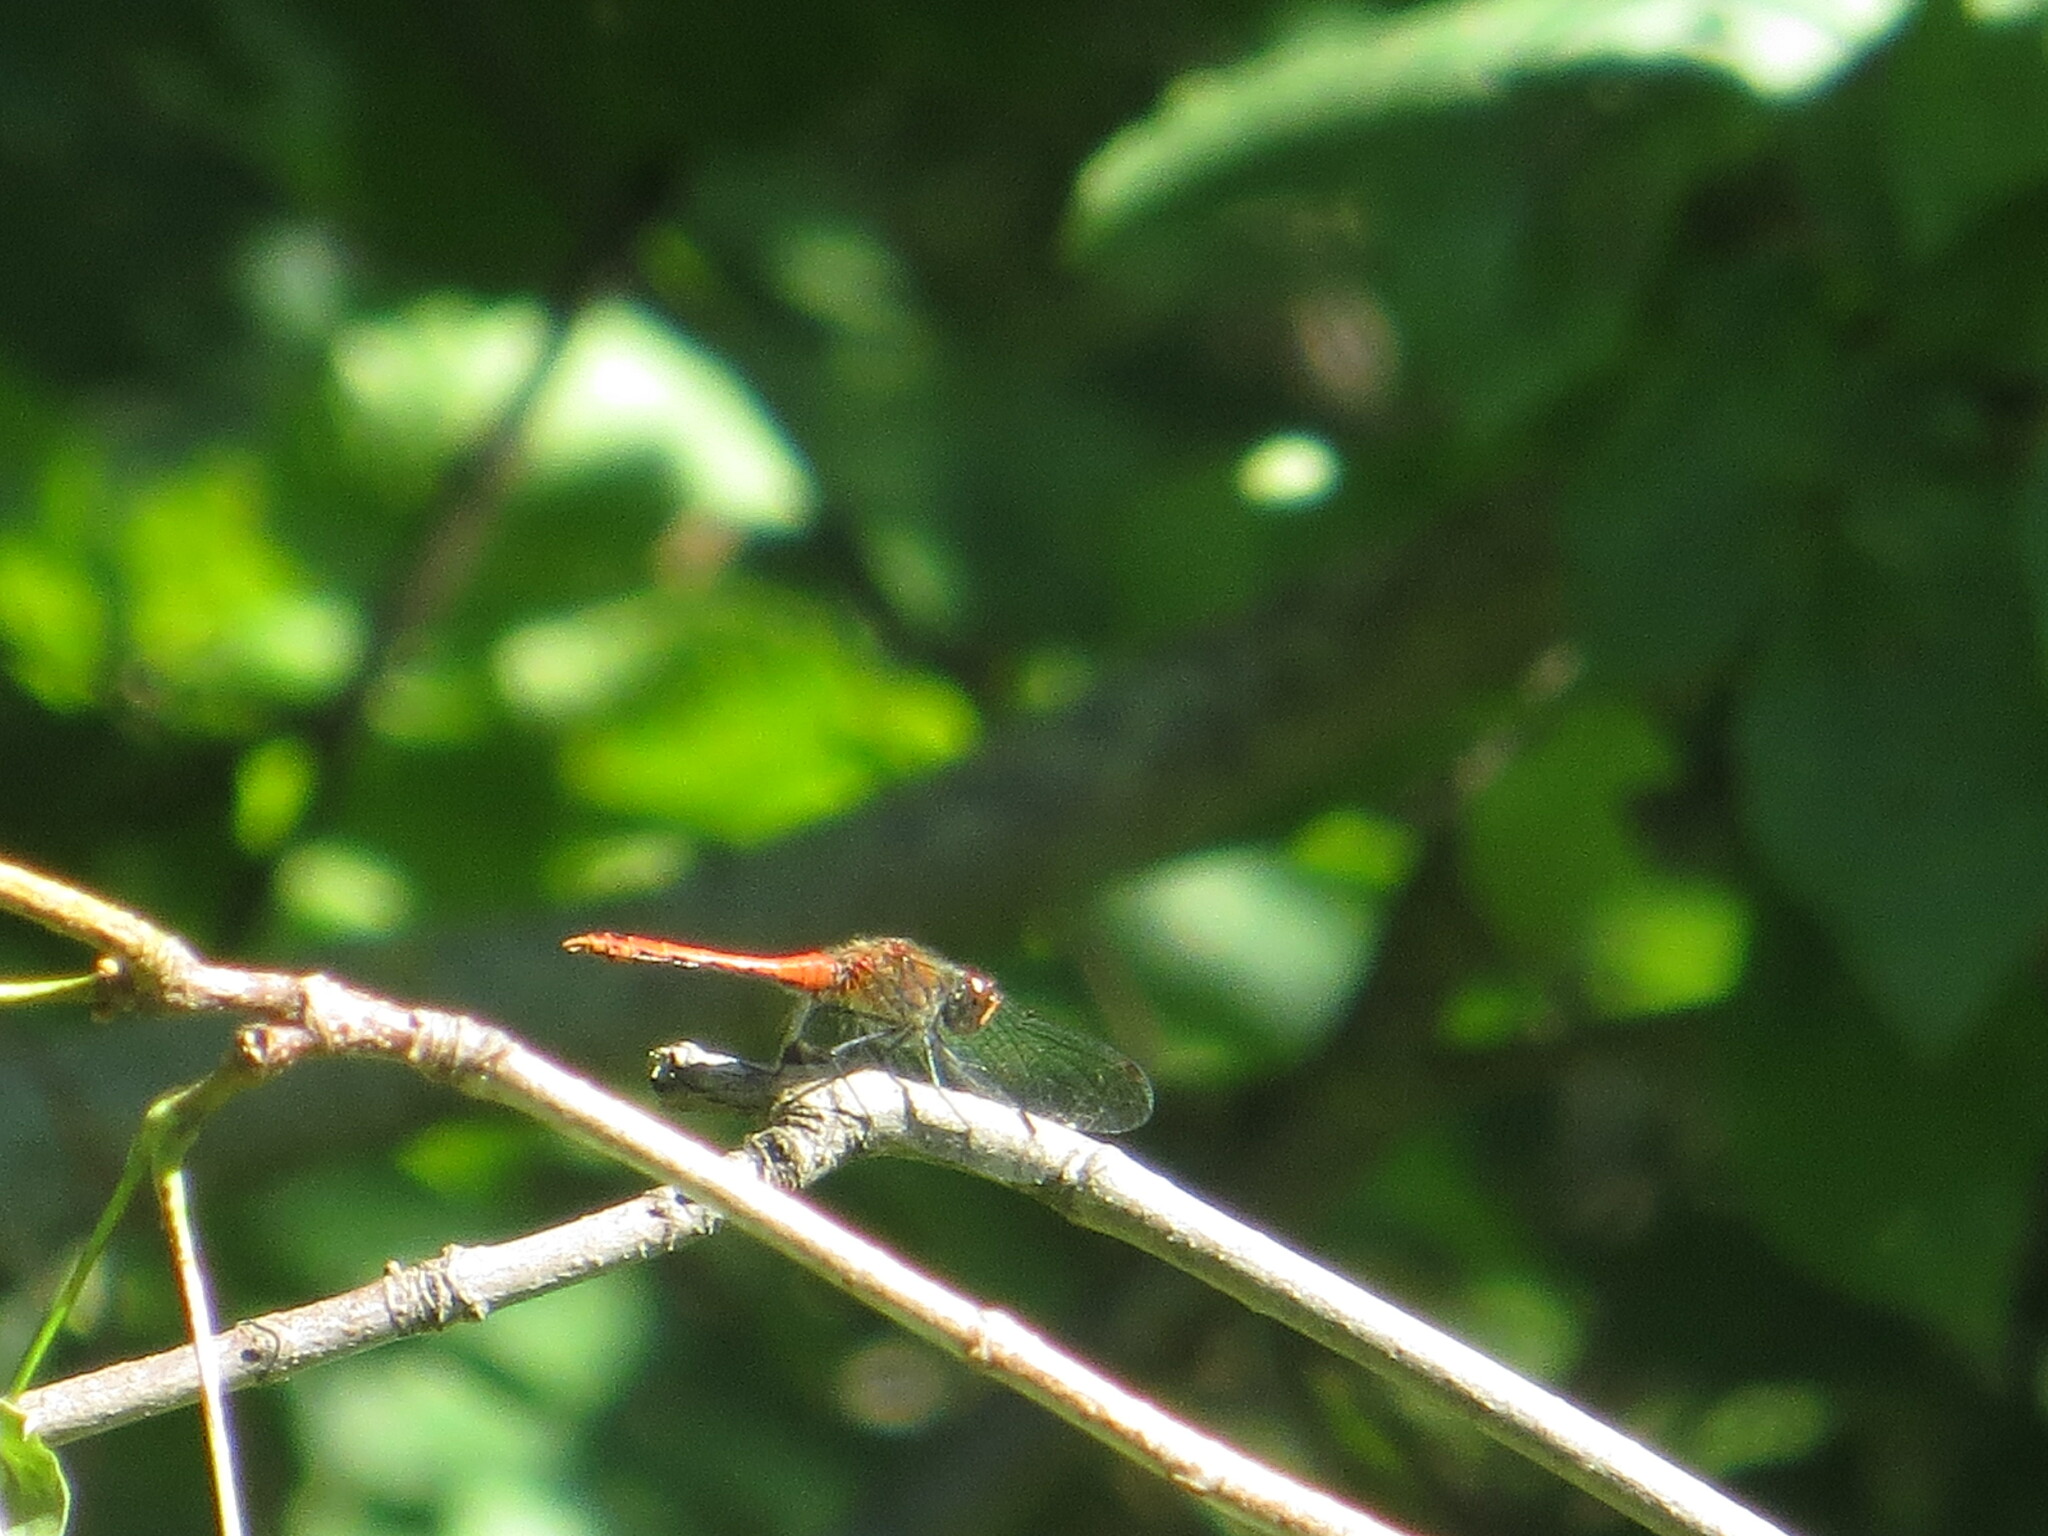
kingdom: Animalia
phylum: Arthropoda
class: Insecta
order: Odonata
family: Libellulidae
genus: Sympetrum
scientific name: Sympetrum sanguineum
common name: Ruddy darter
